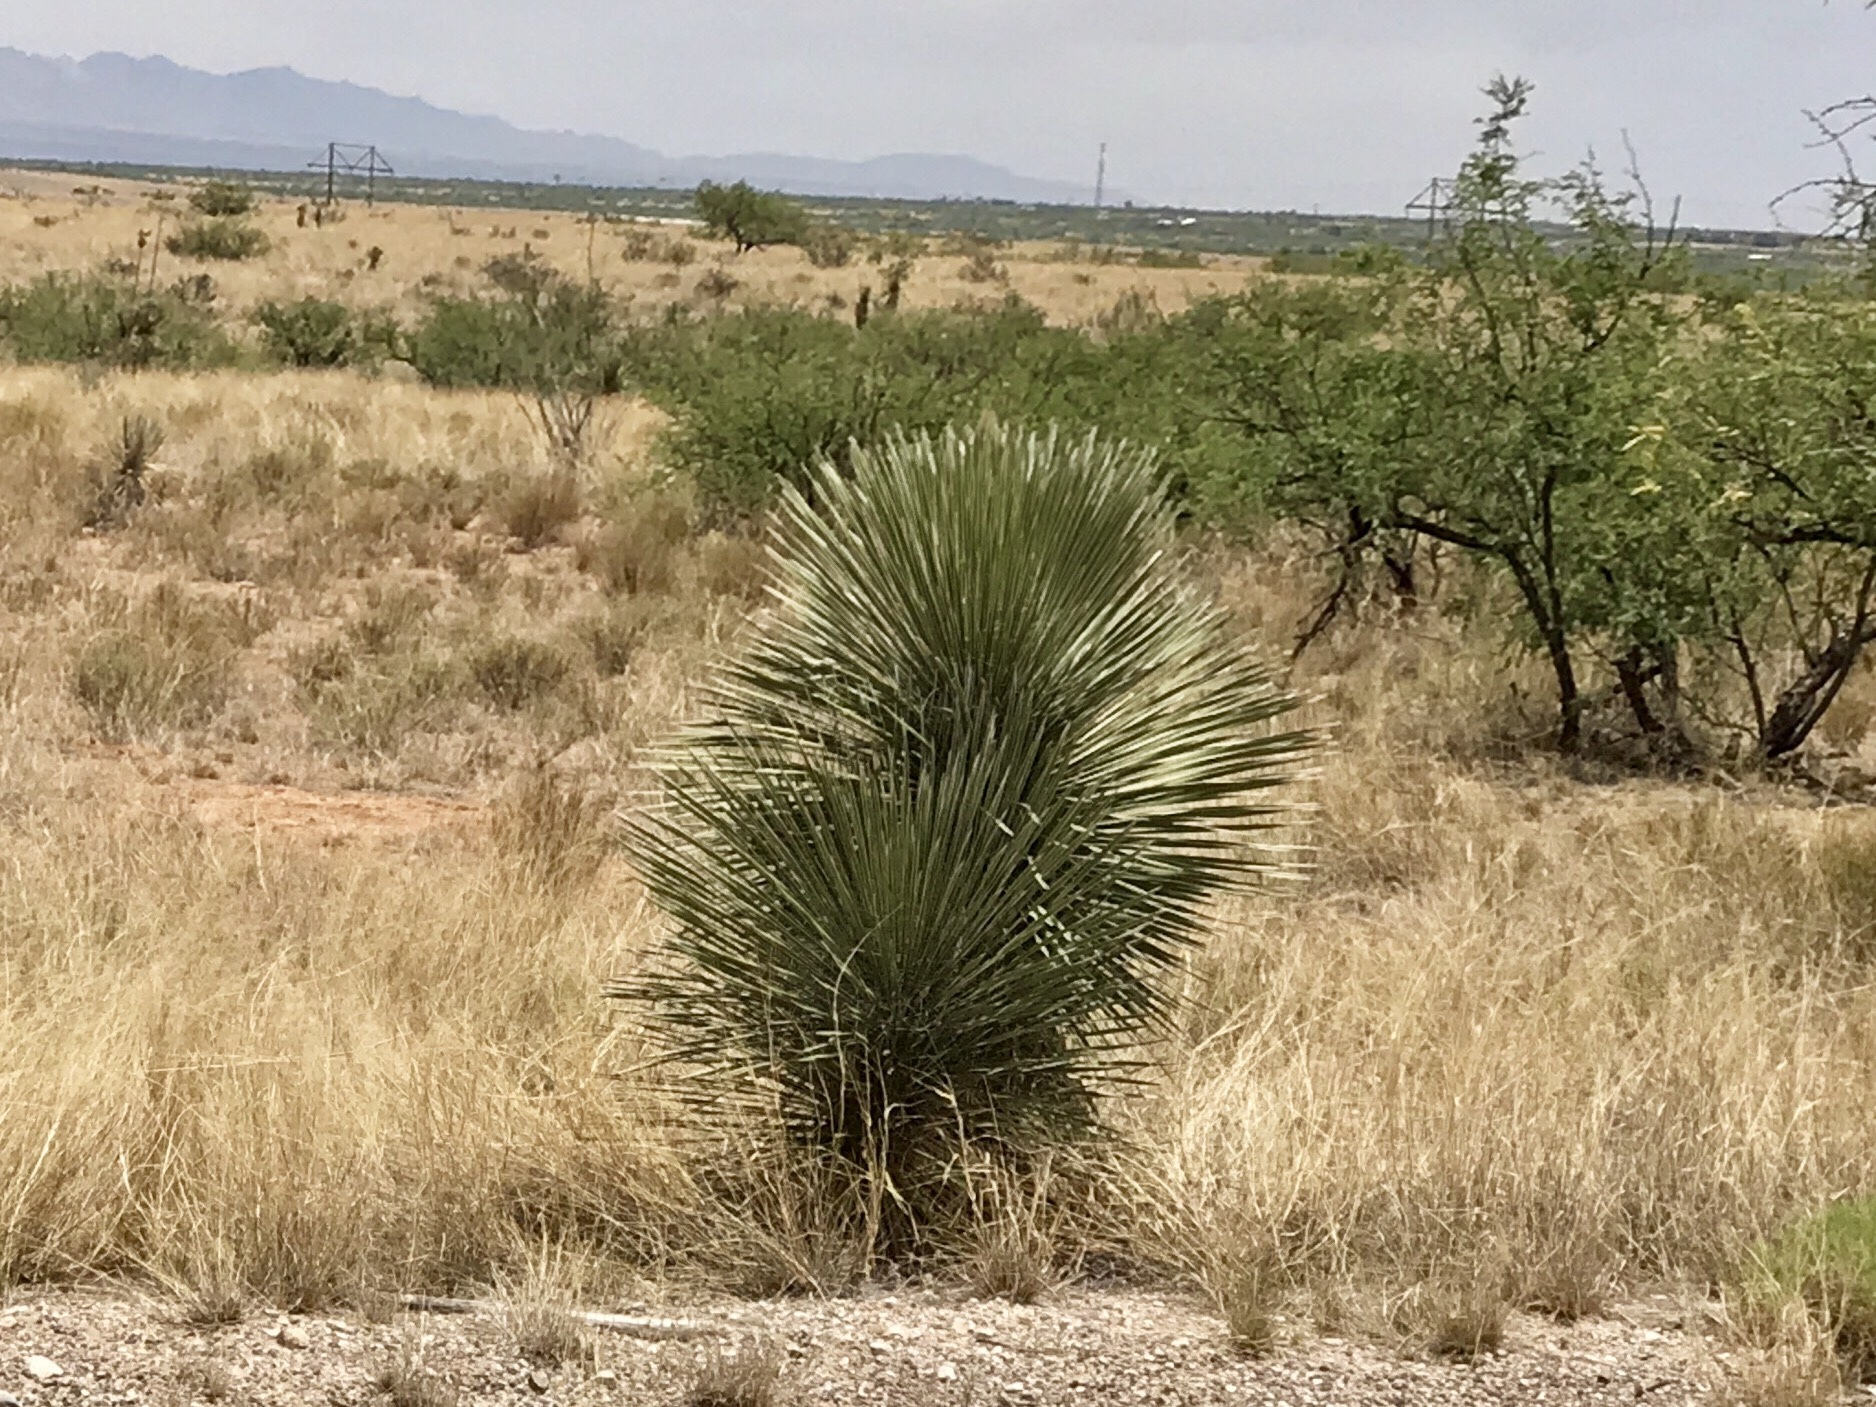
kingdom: Plantae
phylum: Tracheophyta
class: Liliopsida
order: Asparagales
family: Asparagaceae
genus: Yucca
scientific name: Yucca elata
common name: Palmella
